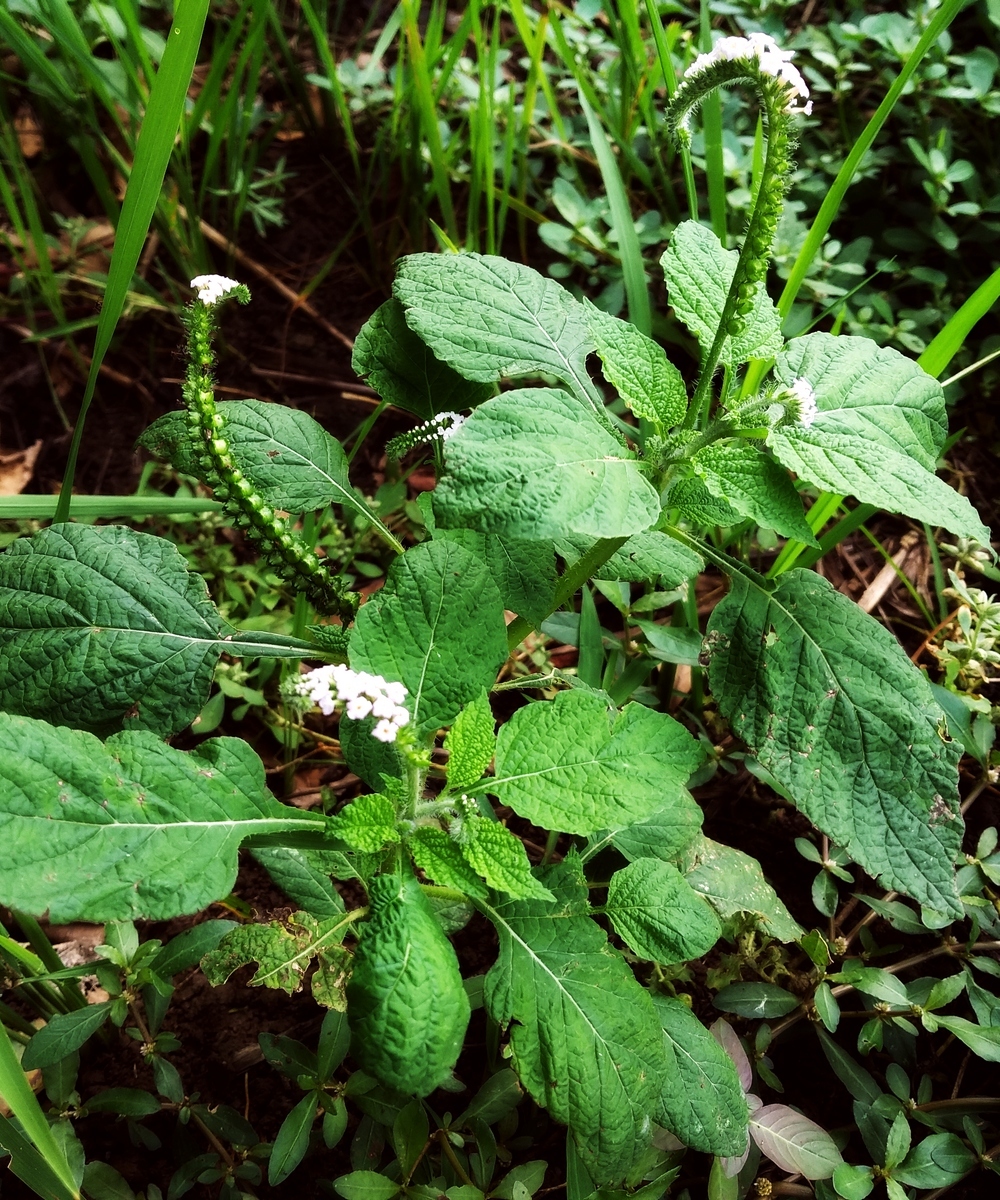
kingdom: Plantae
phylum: Tracheophyta
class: Magnoliopsida
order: Boraginales
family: Heliotropiaceae
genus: Heliotropium
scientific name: Heliotropium indicum
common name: Indian heliotrope
